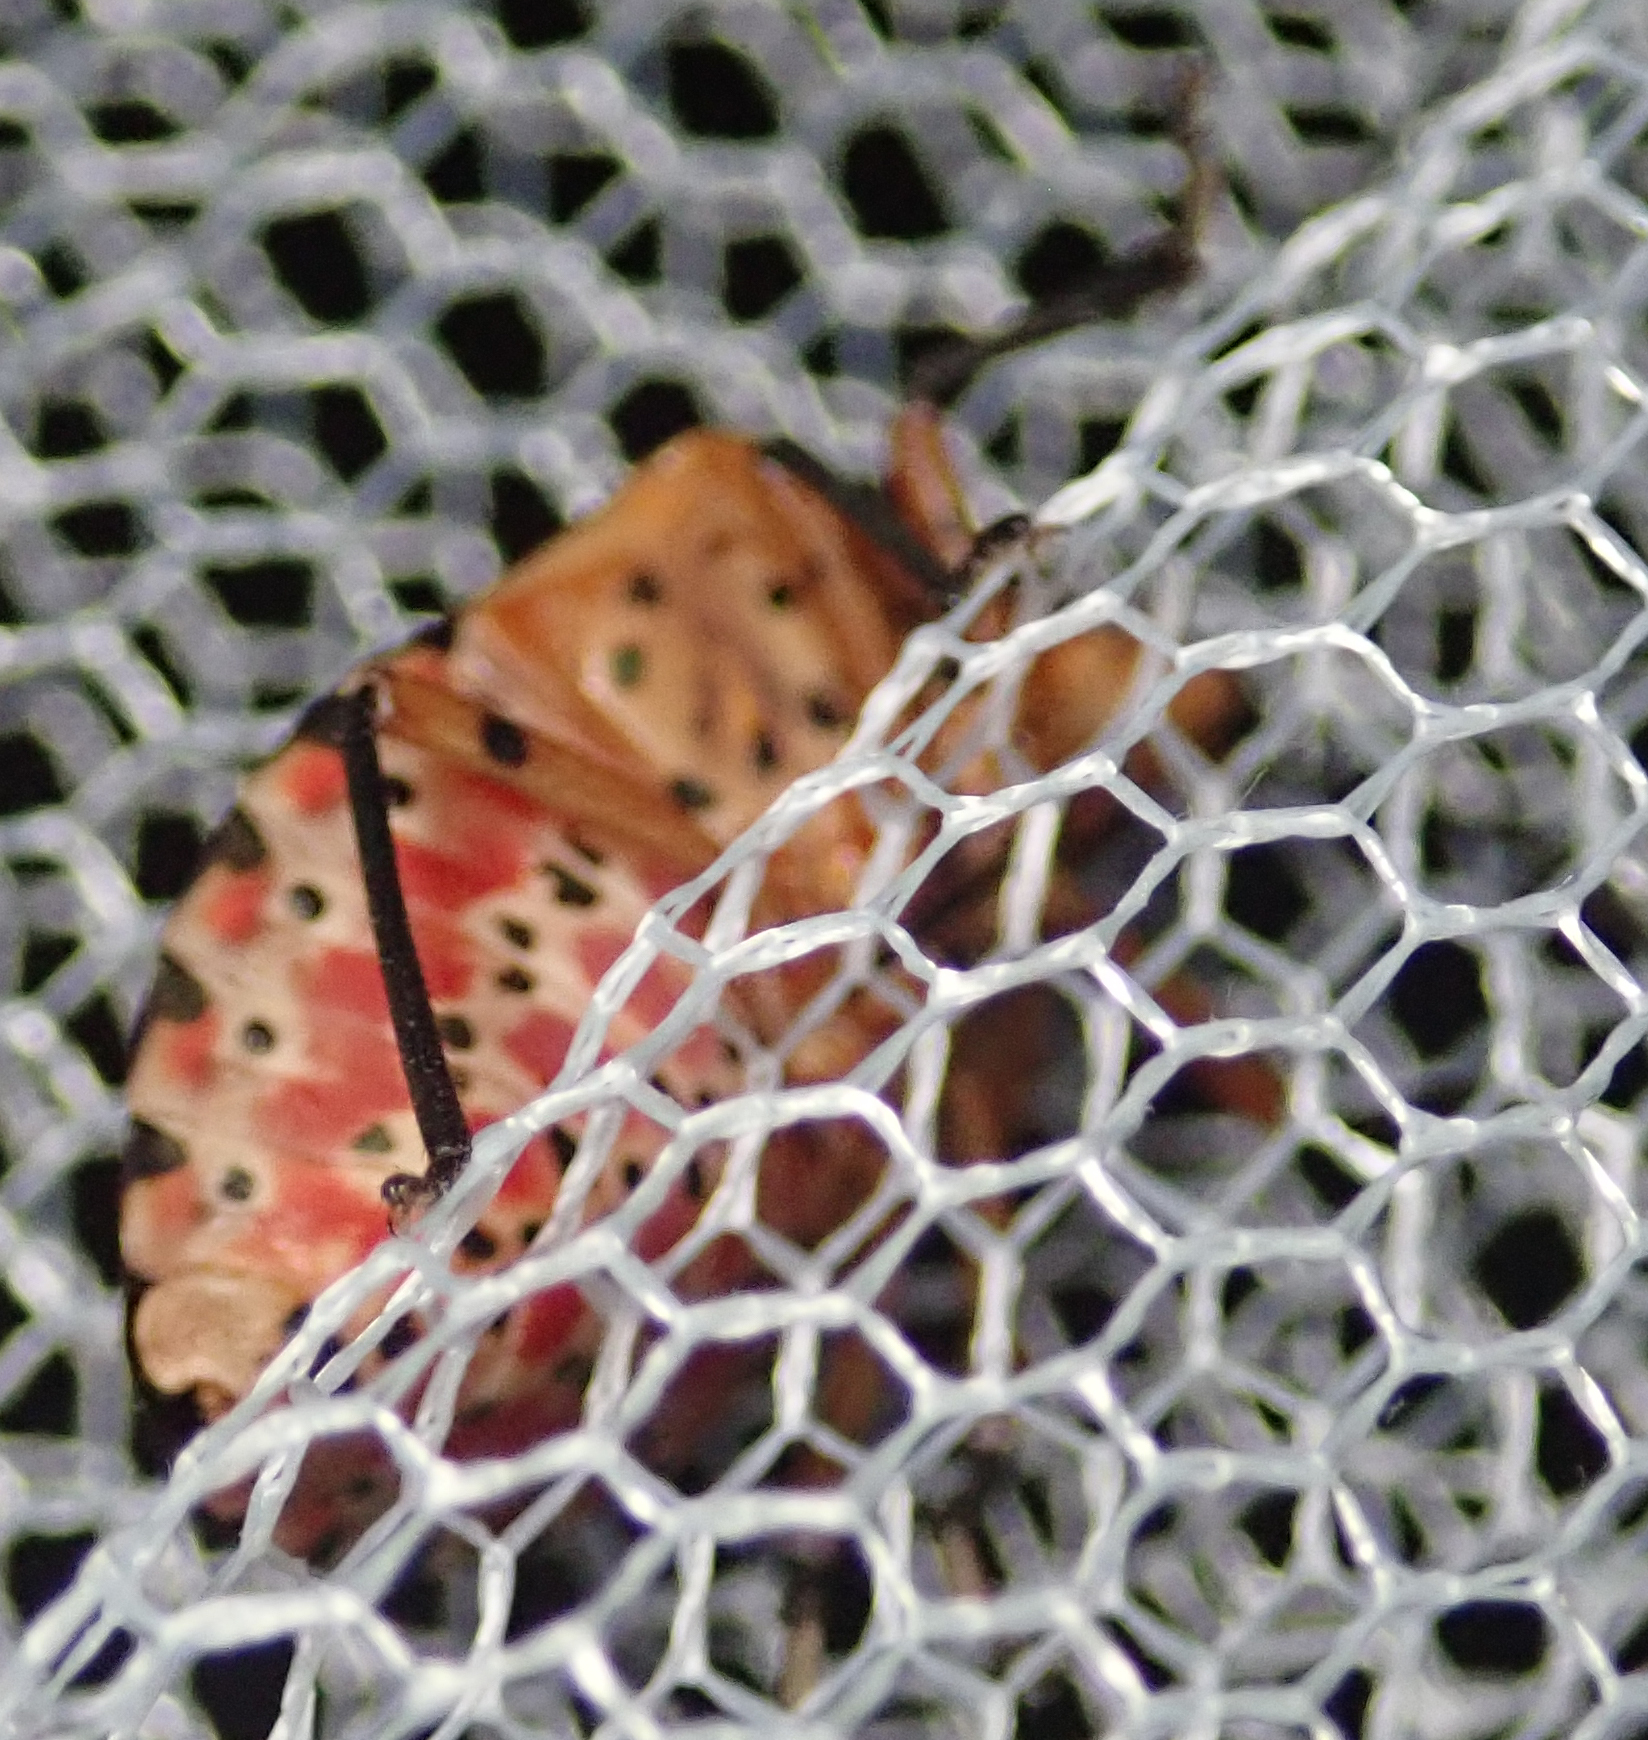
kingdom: Animalia
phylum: Arthropoda
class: Insecta
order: Hemiptera
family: Pentatomidae
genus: Caura
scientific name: Caura rufiventris
